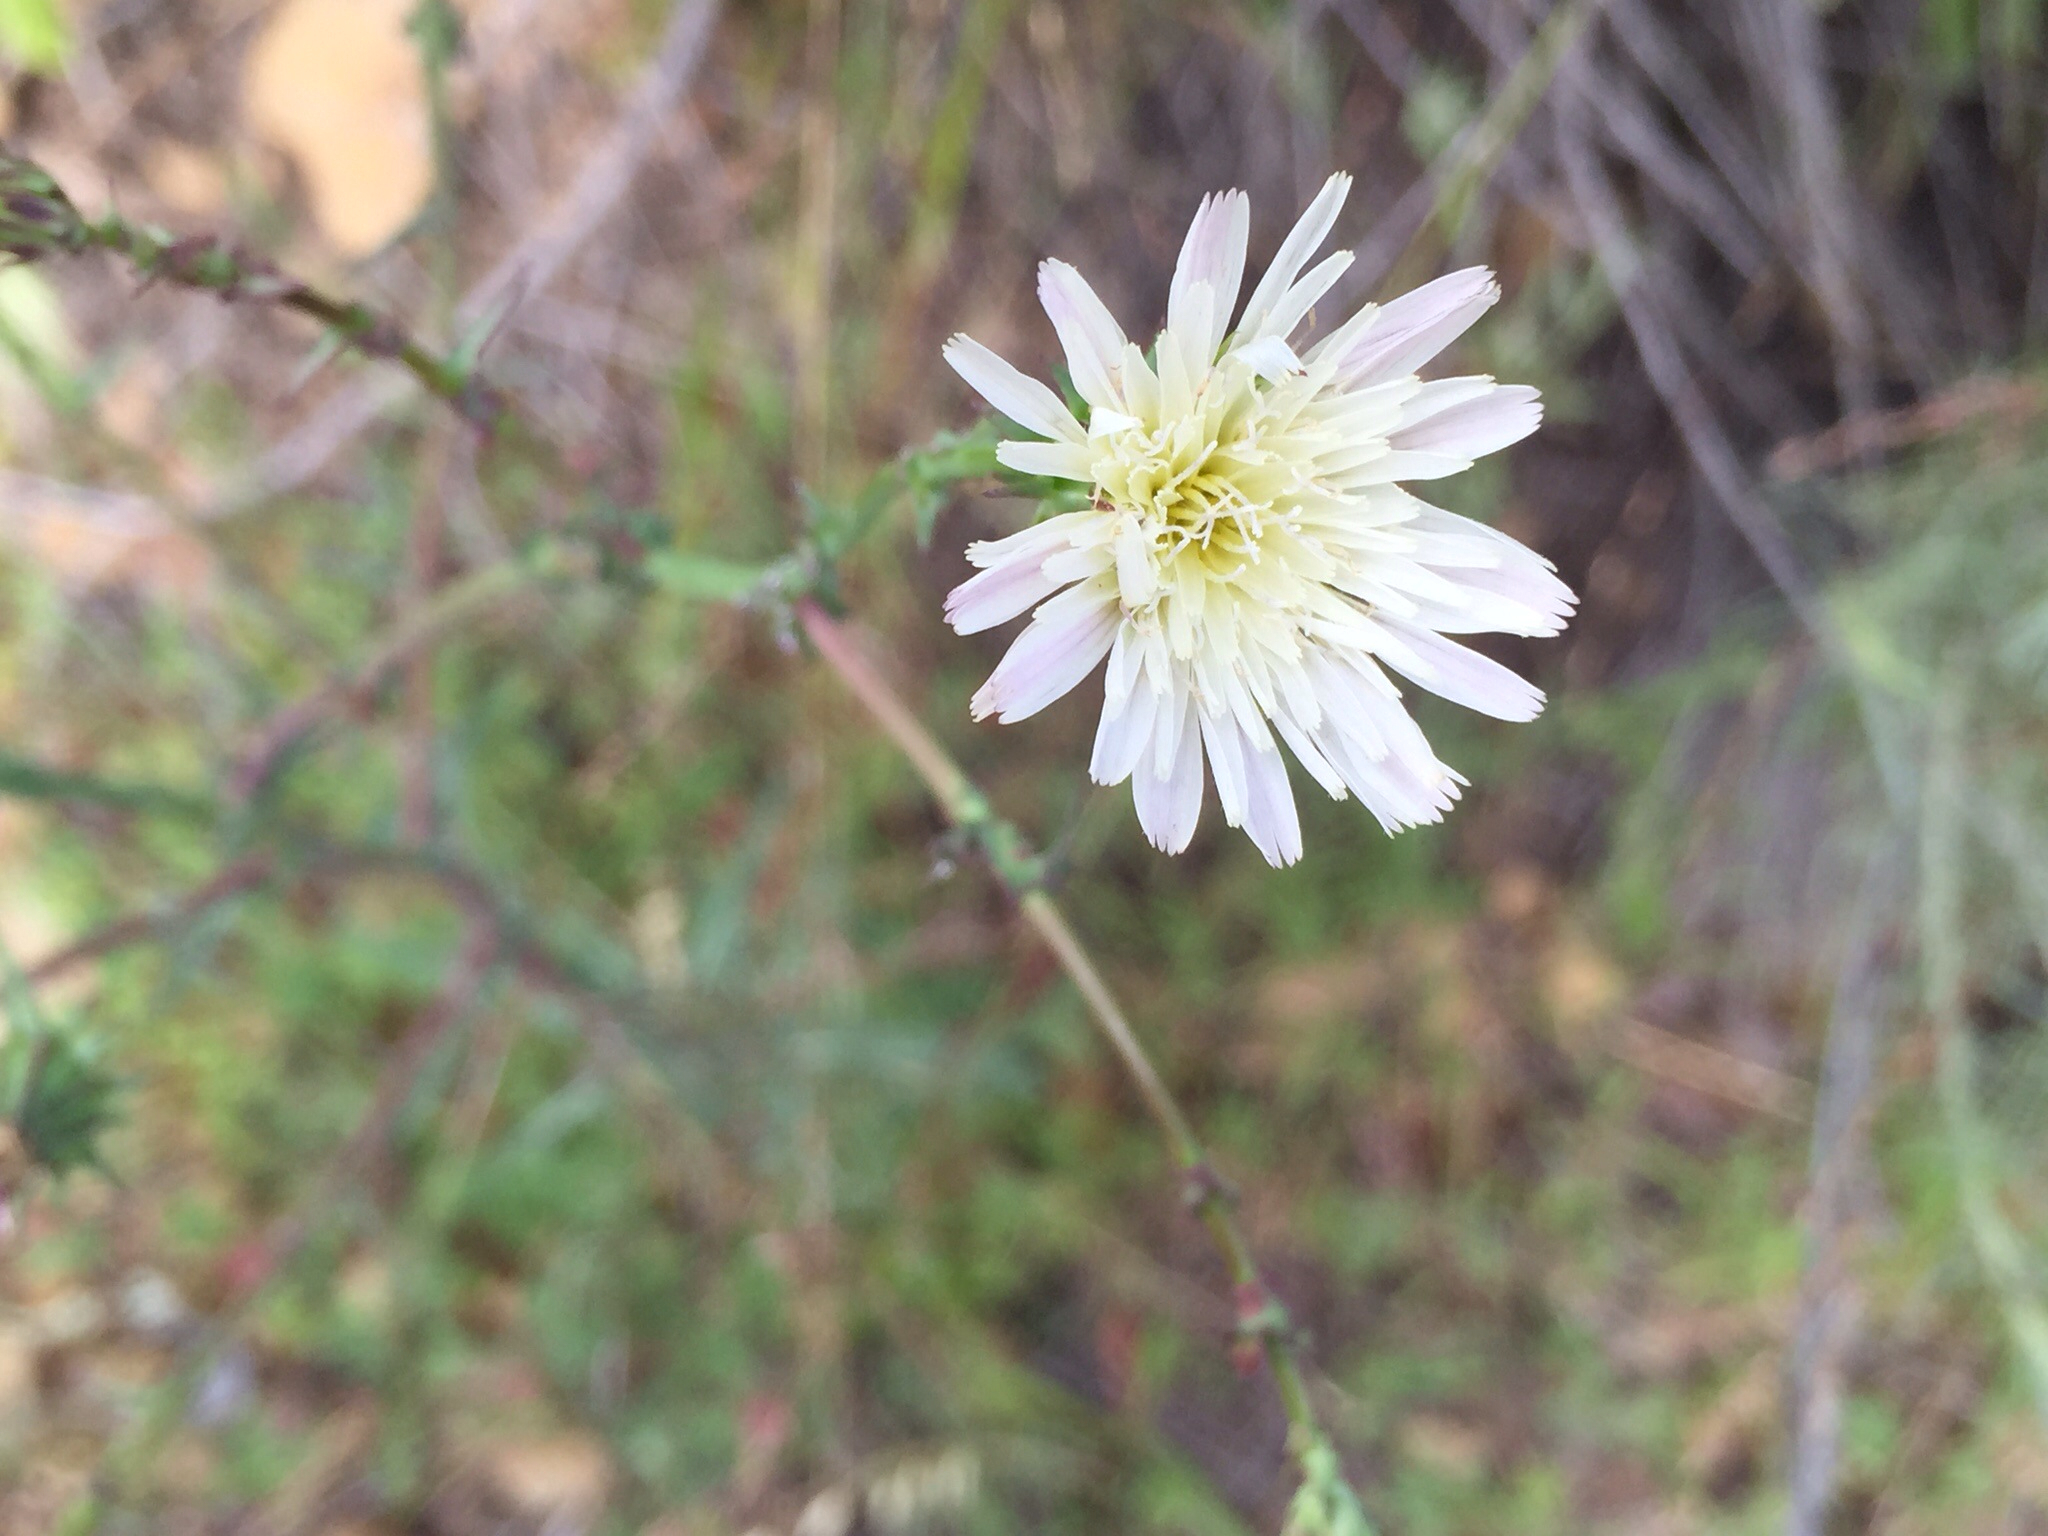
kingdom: Plantae
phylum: Tracheophyta
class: Magnoliopsida
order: Asterales
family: Asteraceae
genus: Rafinesquia
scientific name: Rafinesquia californica
